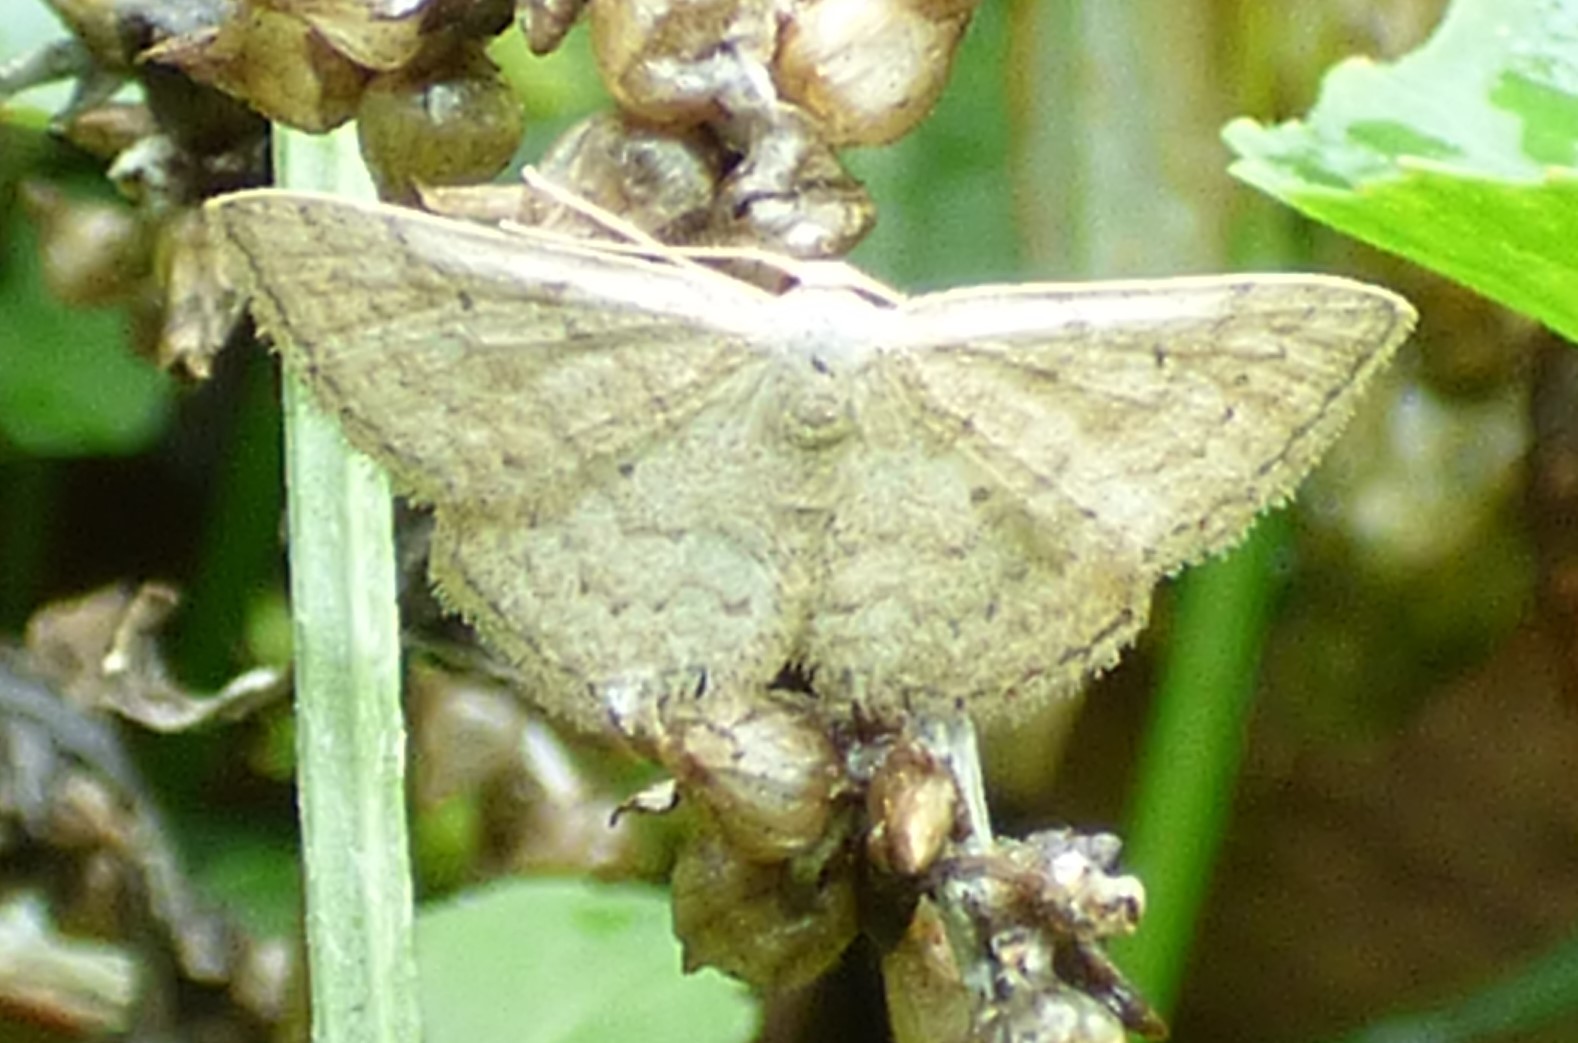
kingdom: Animalia
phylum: Arthropoda
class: Insecta
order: Lepidoptera
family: Geometridae
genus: Lobocleta
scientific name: Lobocleta ossularia
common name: Drab brown wave
